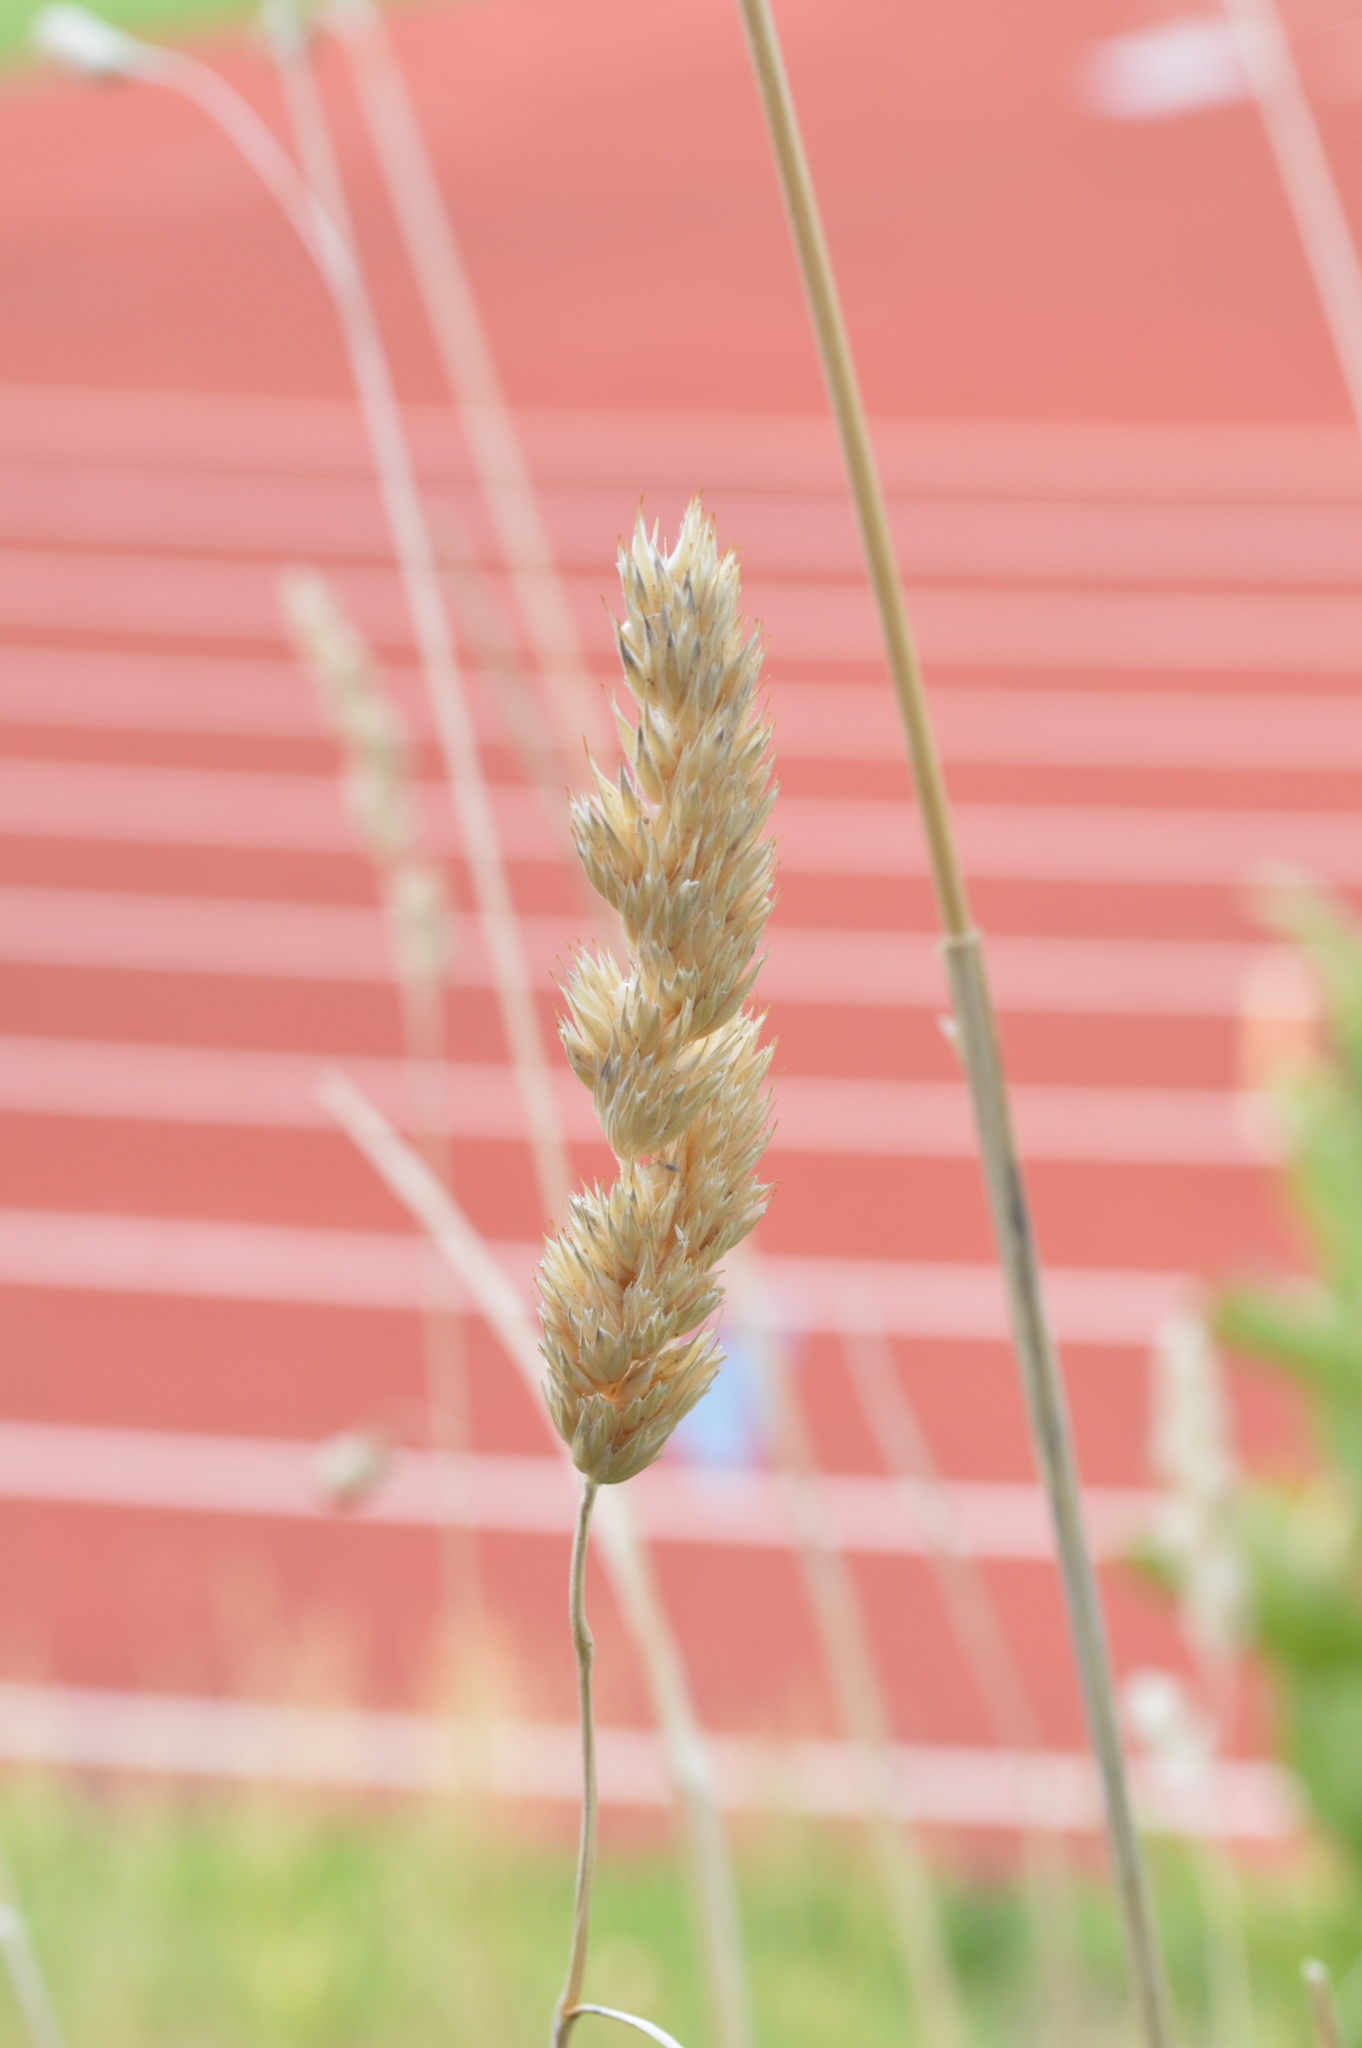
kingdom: Plantae
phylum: Tracheophyta
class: Liliopsida
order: Poales
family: Poaceae
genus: Dactylis
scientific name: Dactylis glomerata
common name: Orchardgrass
